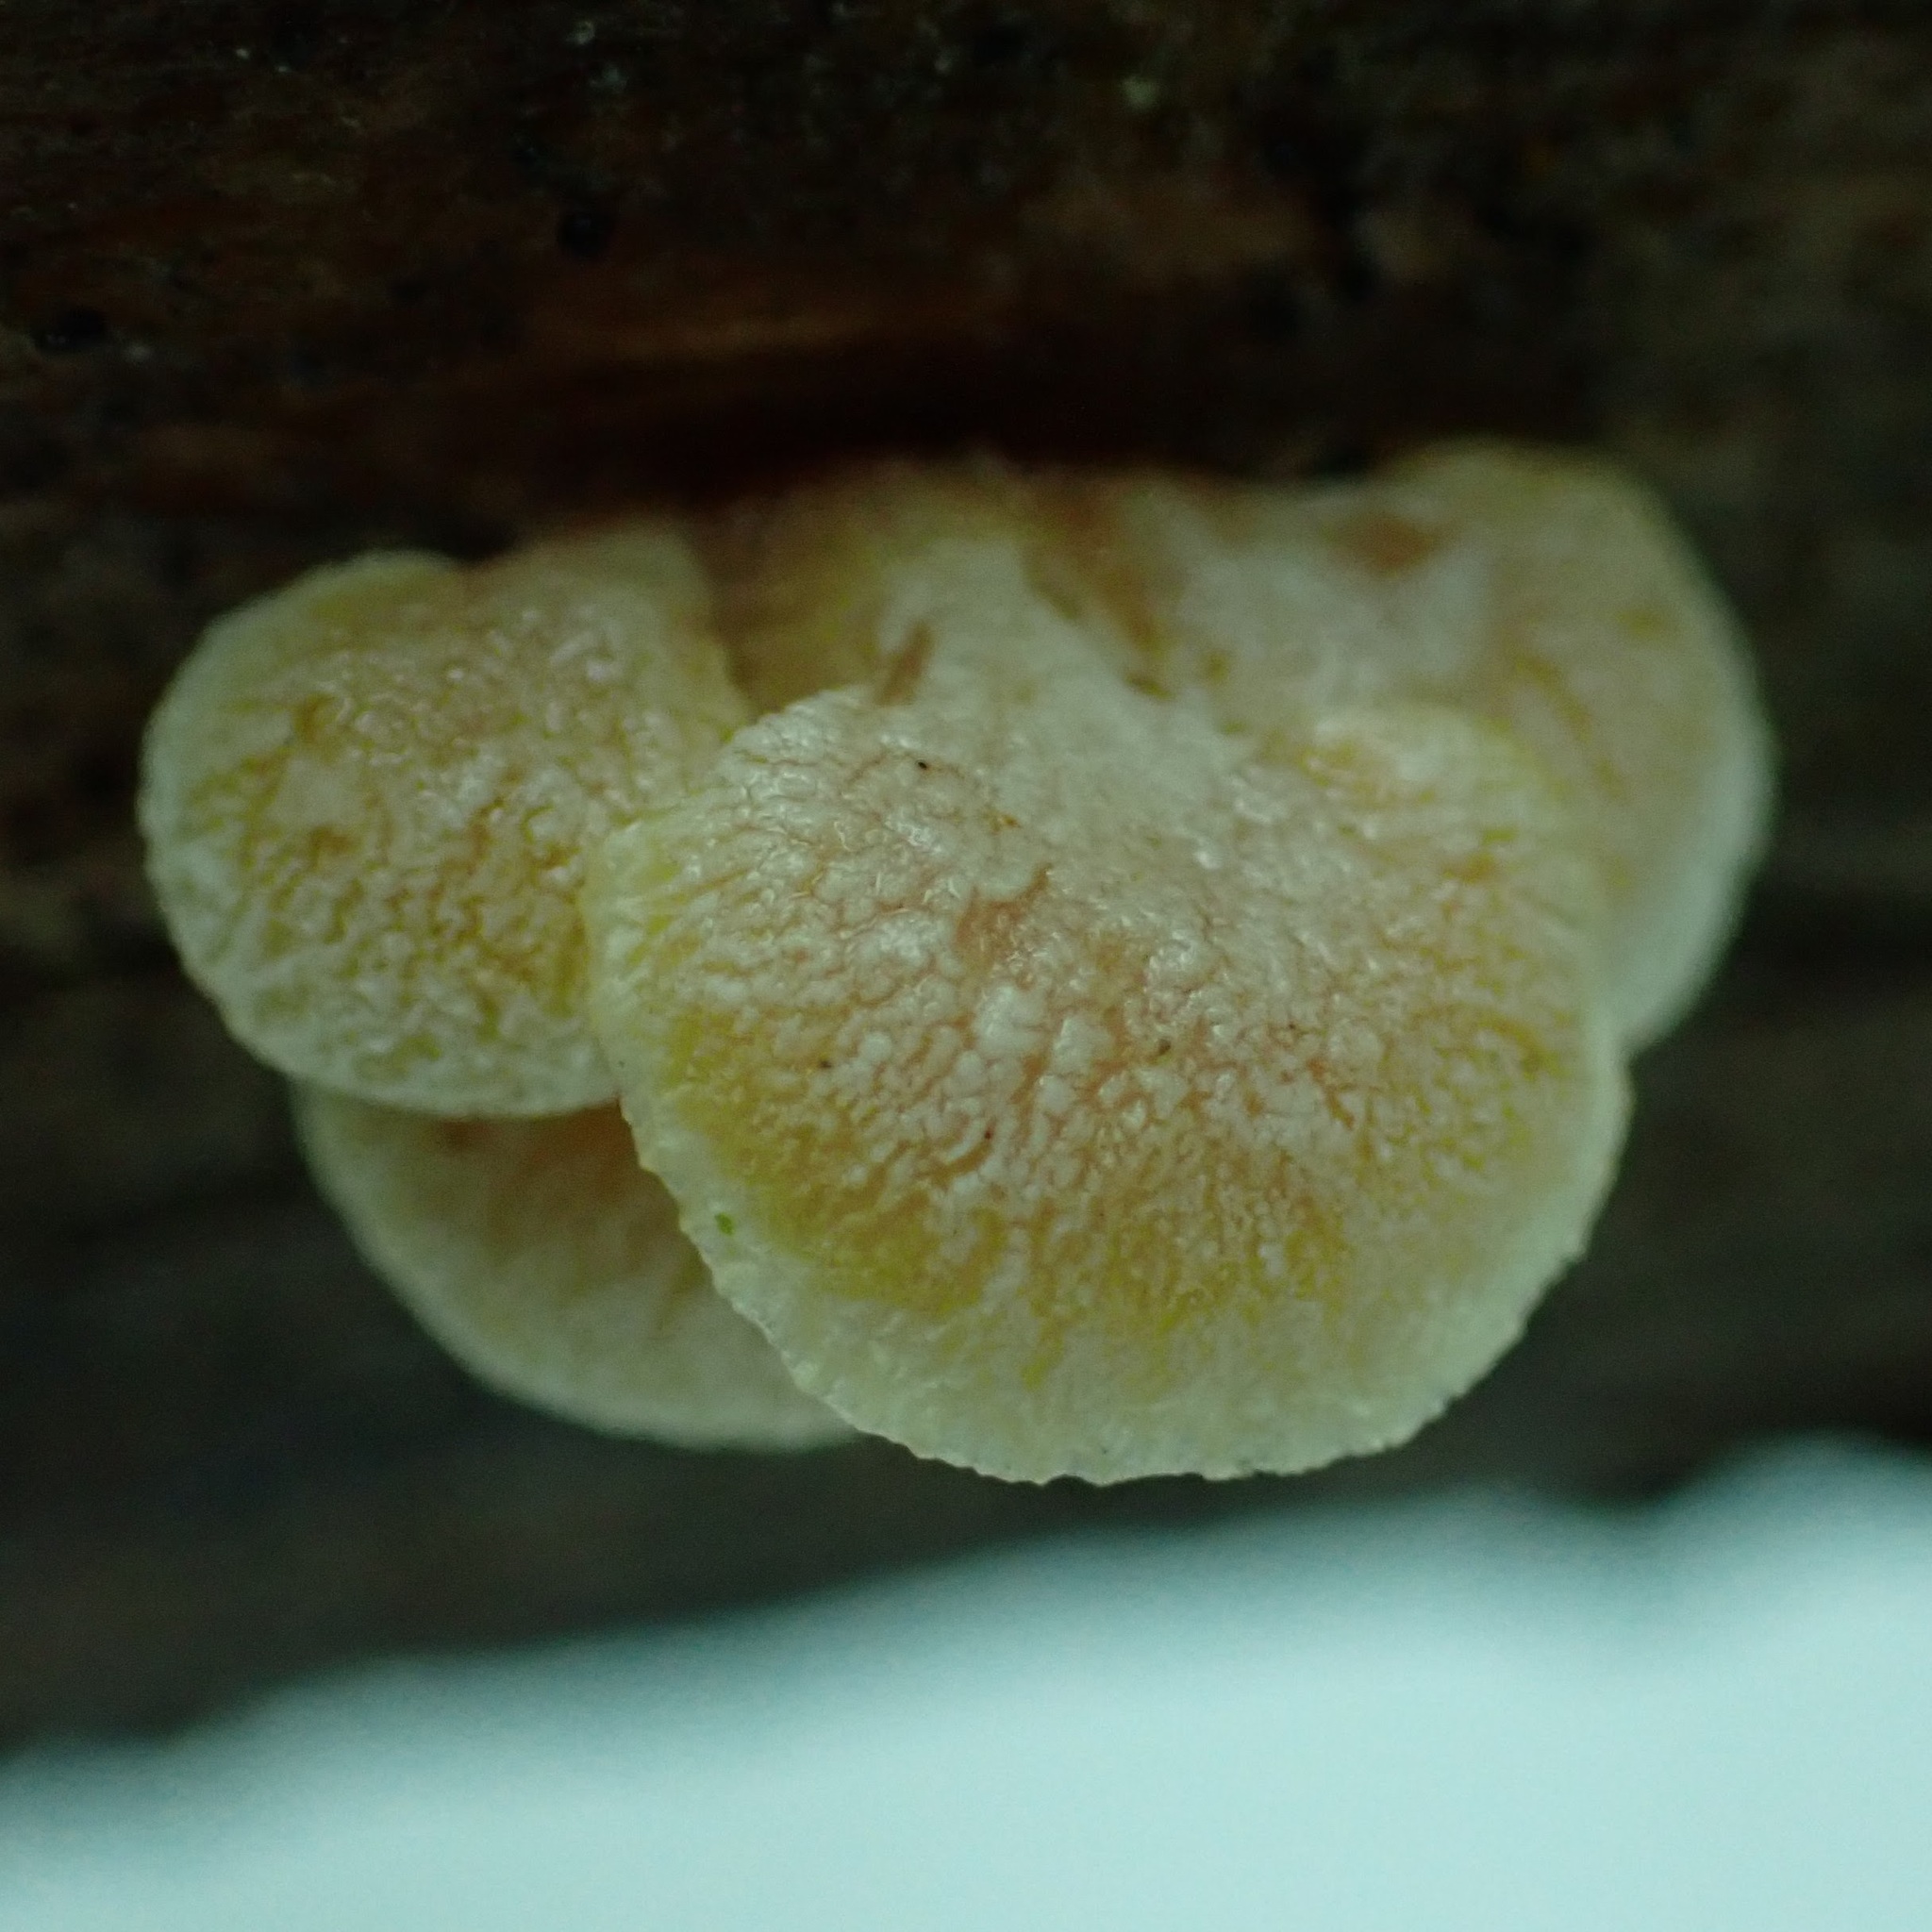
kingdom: Fungi
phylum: Basidiomycota
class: Agaricomycetes
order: Agaricales
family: Mycenaceae
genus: Panellus
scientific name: Panellus stipticus
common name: Bitter oysterling
